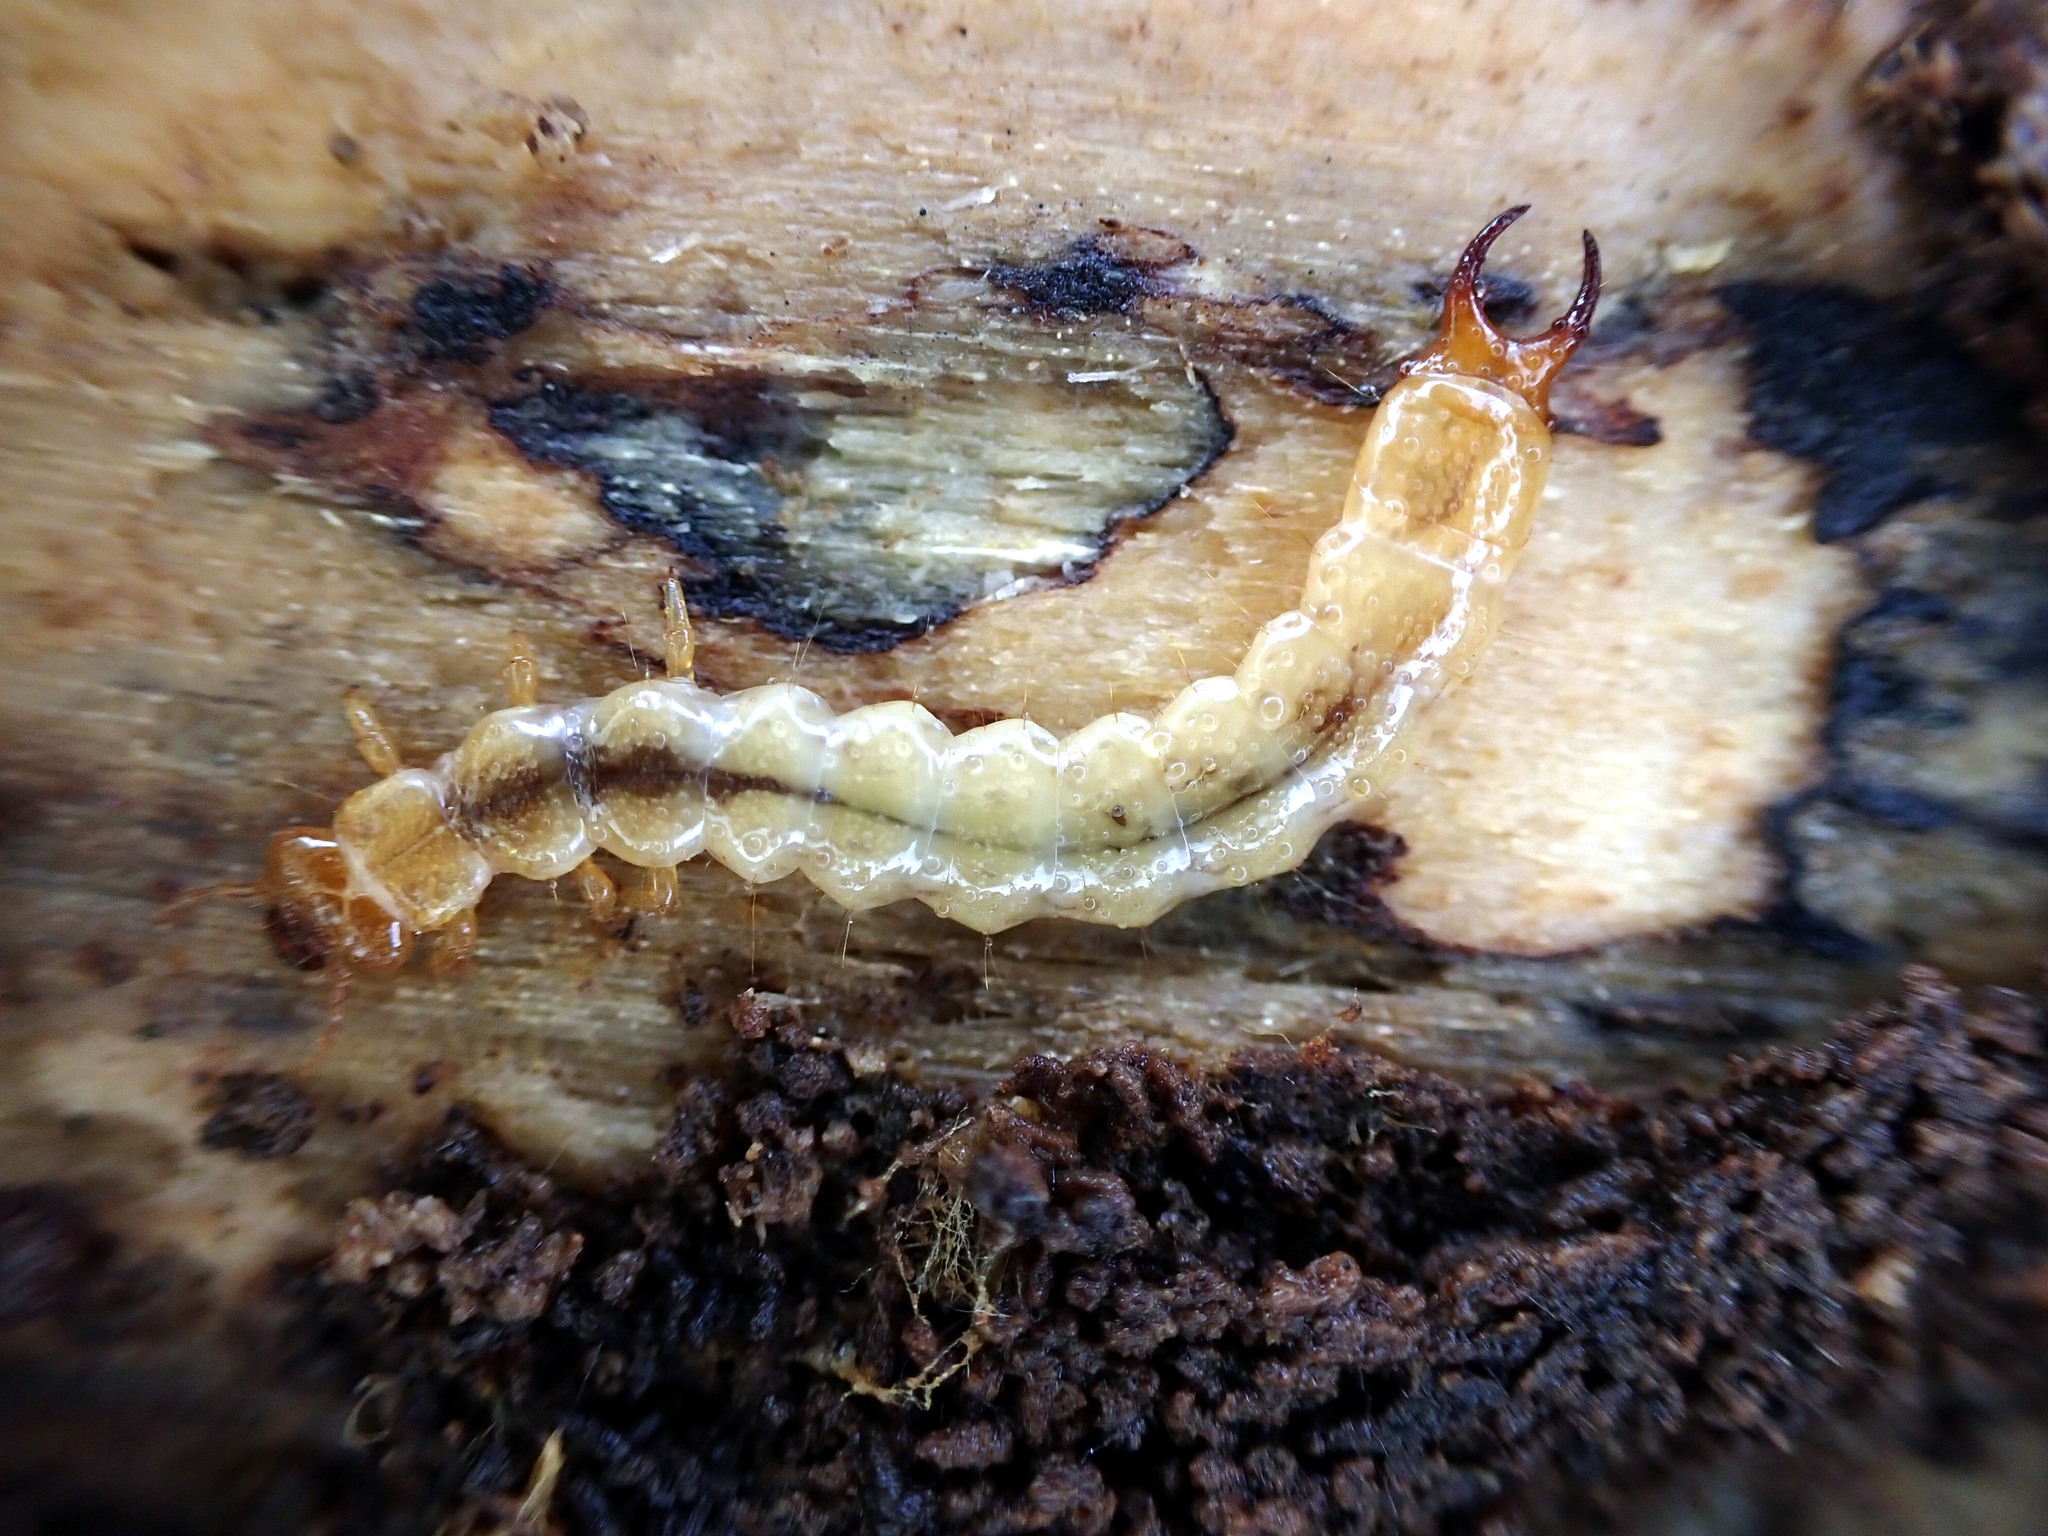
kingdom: Animalia
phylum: Arthropoda
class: Insecta
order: Coleoptera
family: Pyrochroidae
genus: Schizotus
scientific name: Schizotus pectinicornis
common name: Scarce cardinal beetle
